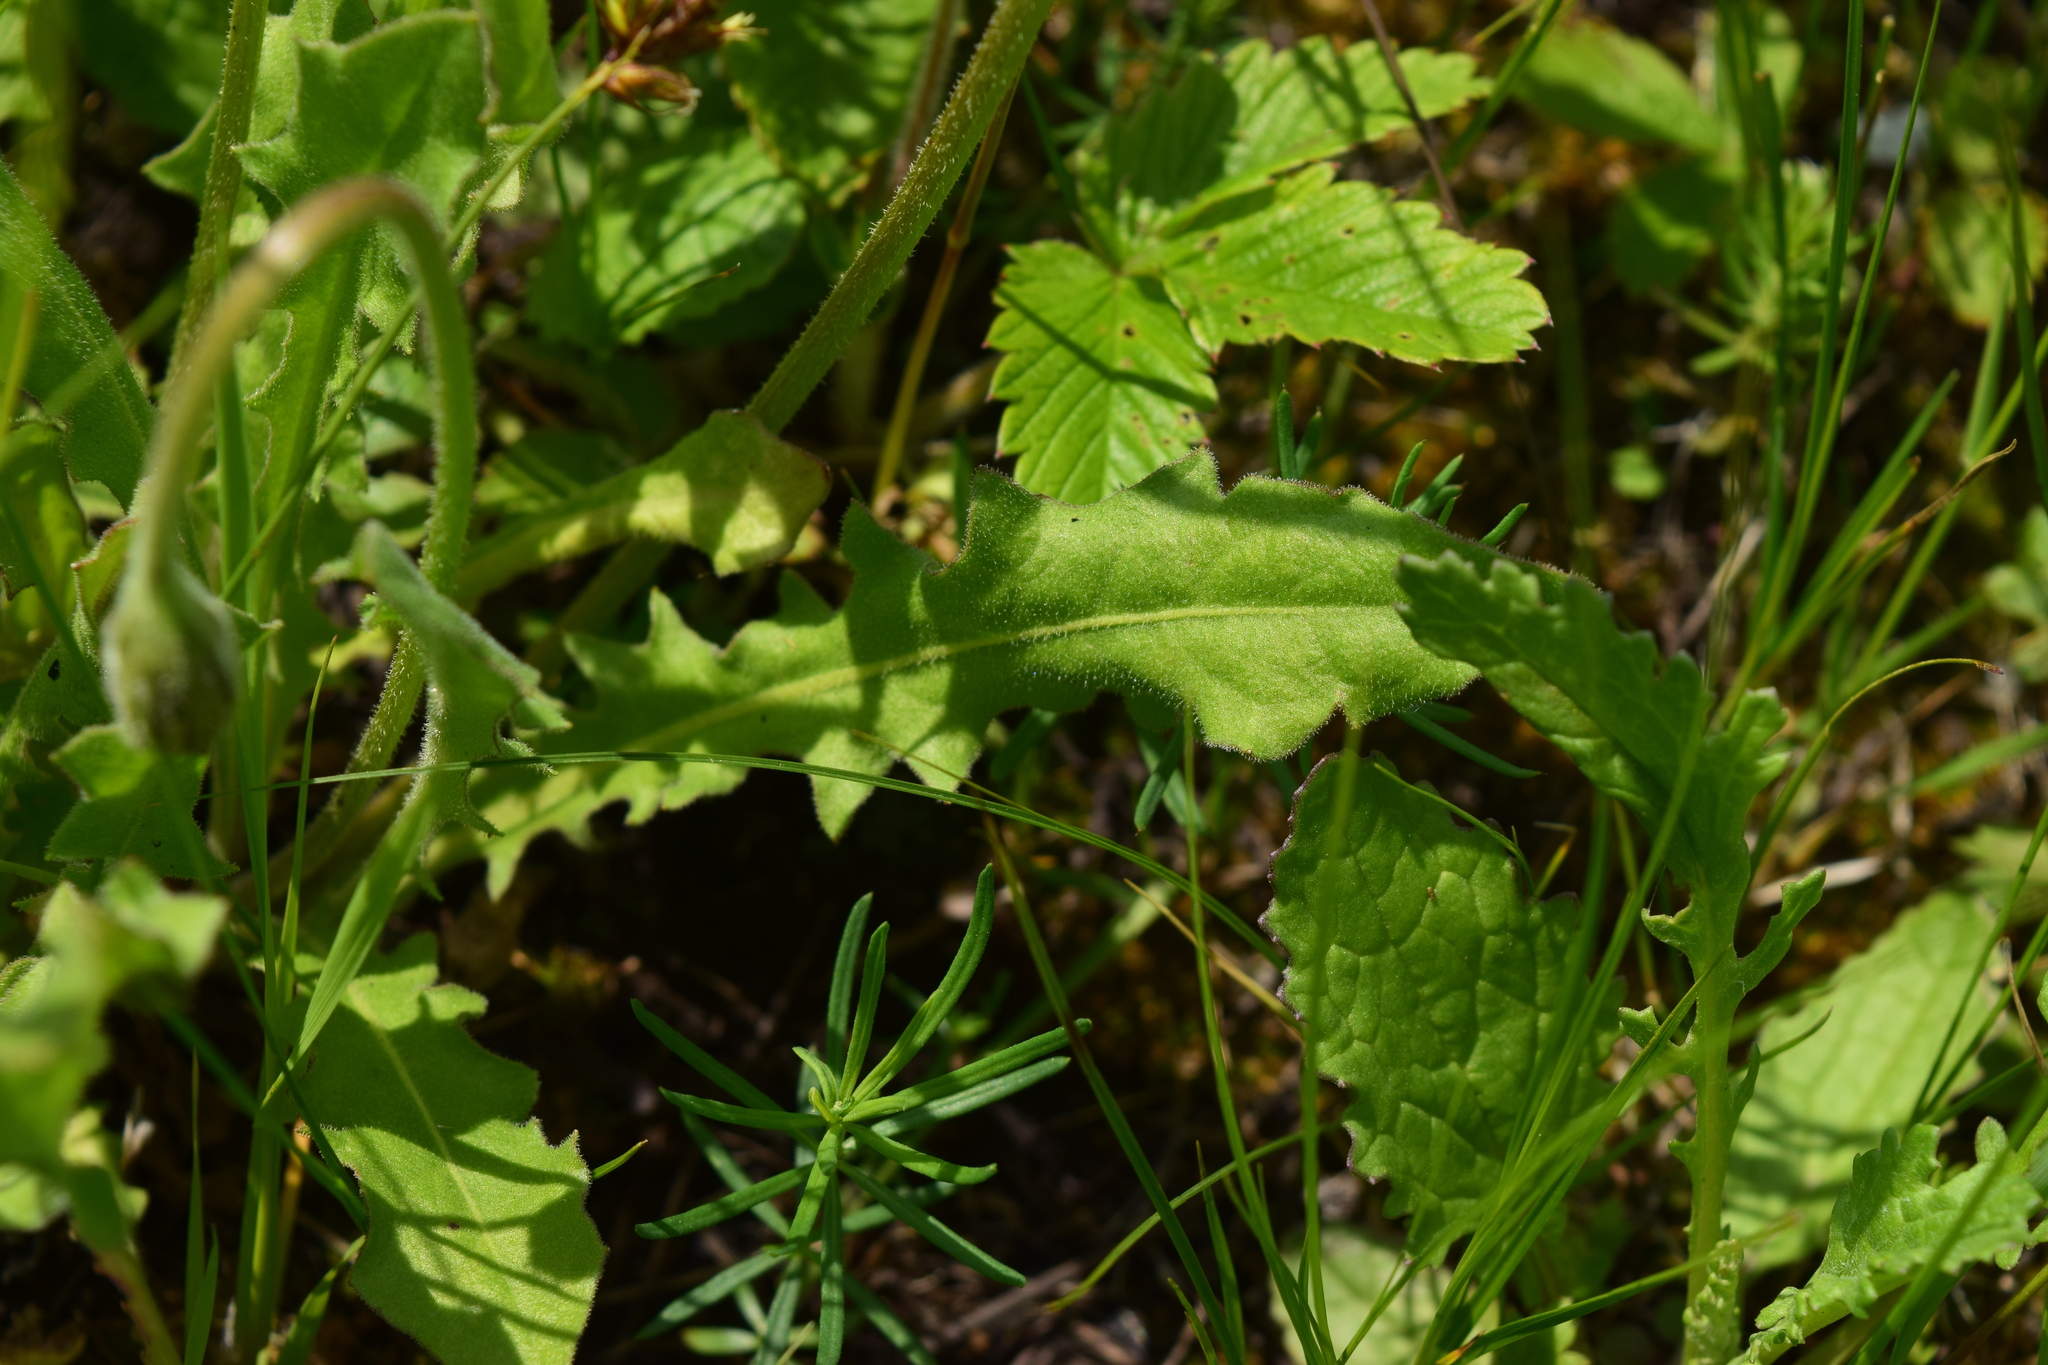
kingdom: Plantae
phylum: Tracheophyta
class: Magnoliopsida
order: Asterales
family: Asteraceae
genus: Leontodon
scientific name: Leontodon hispidus
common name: Rough hawkbit
